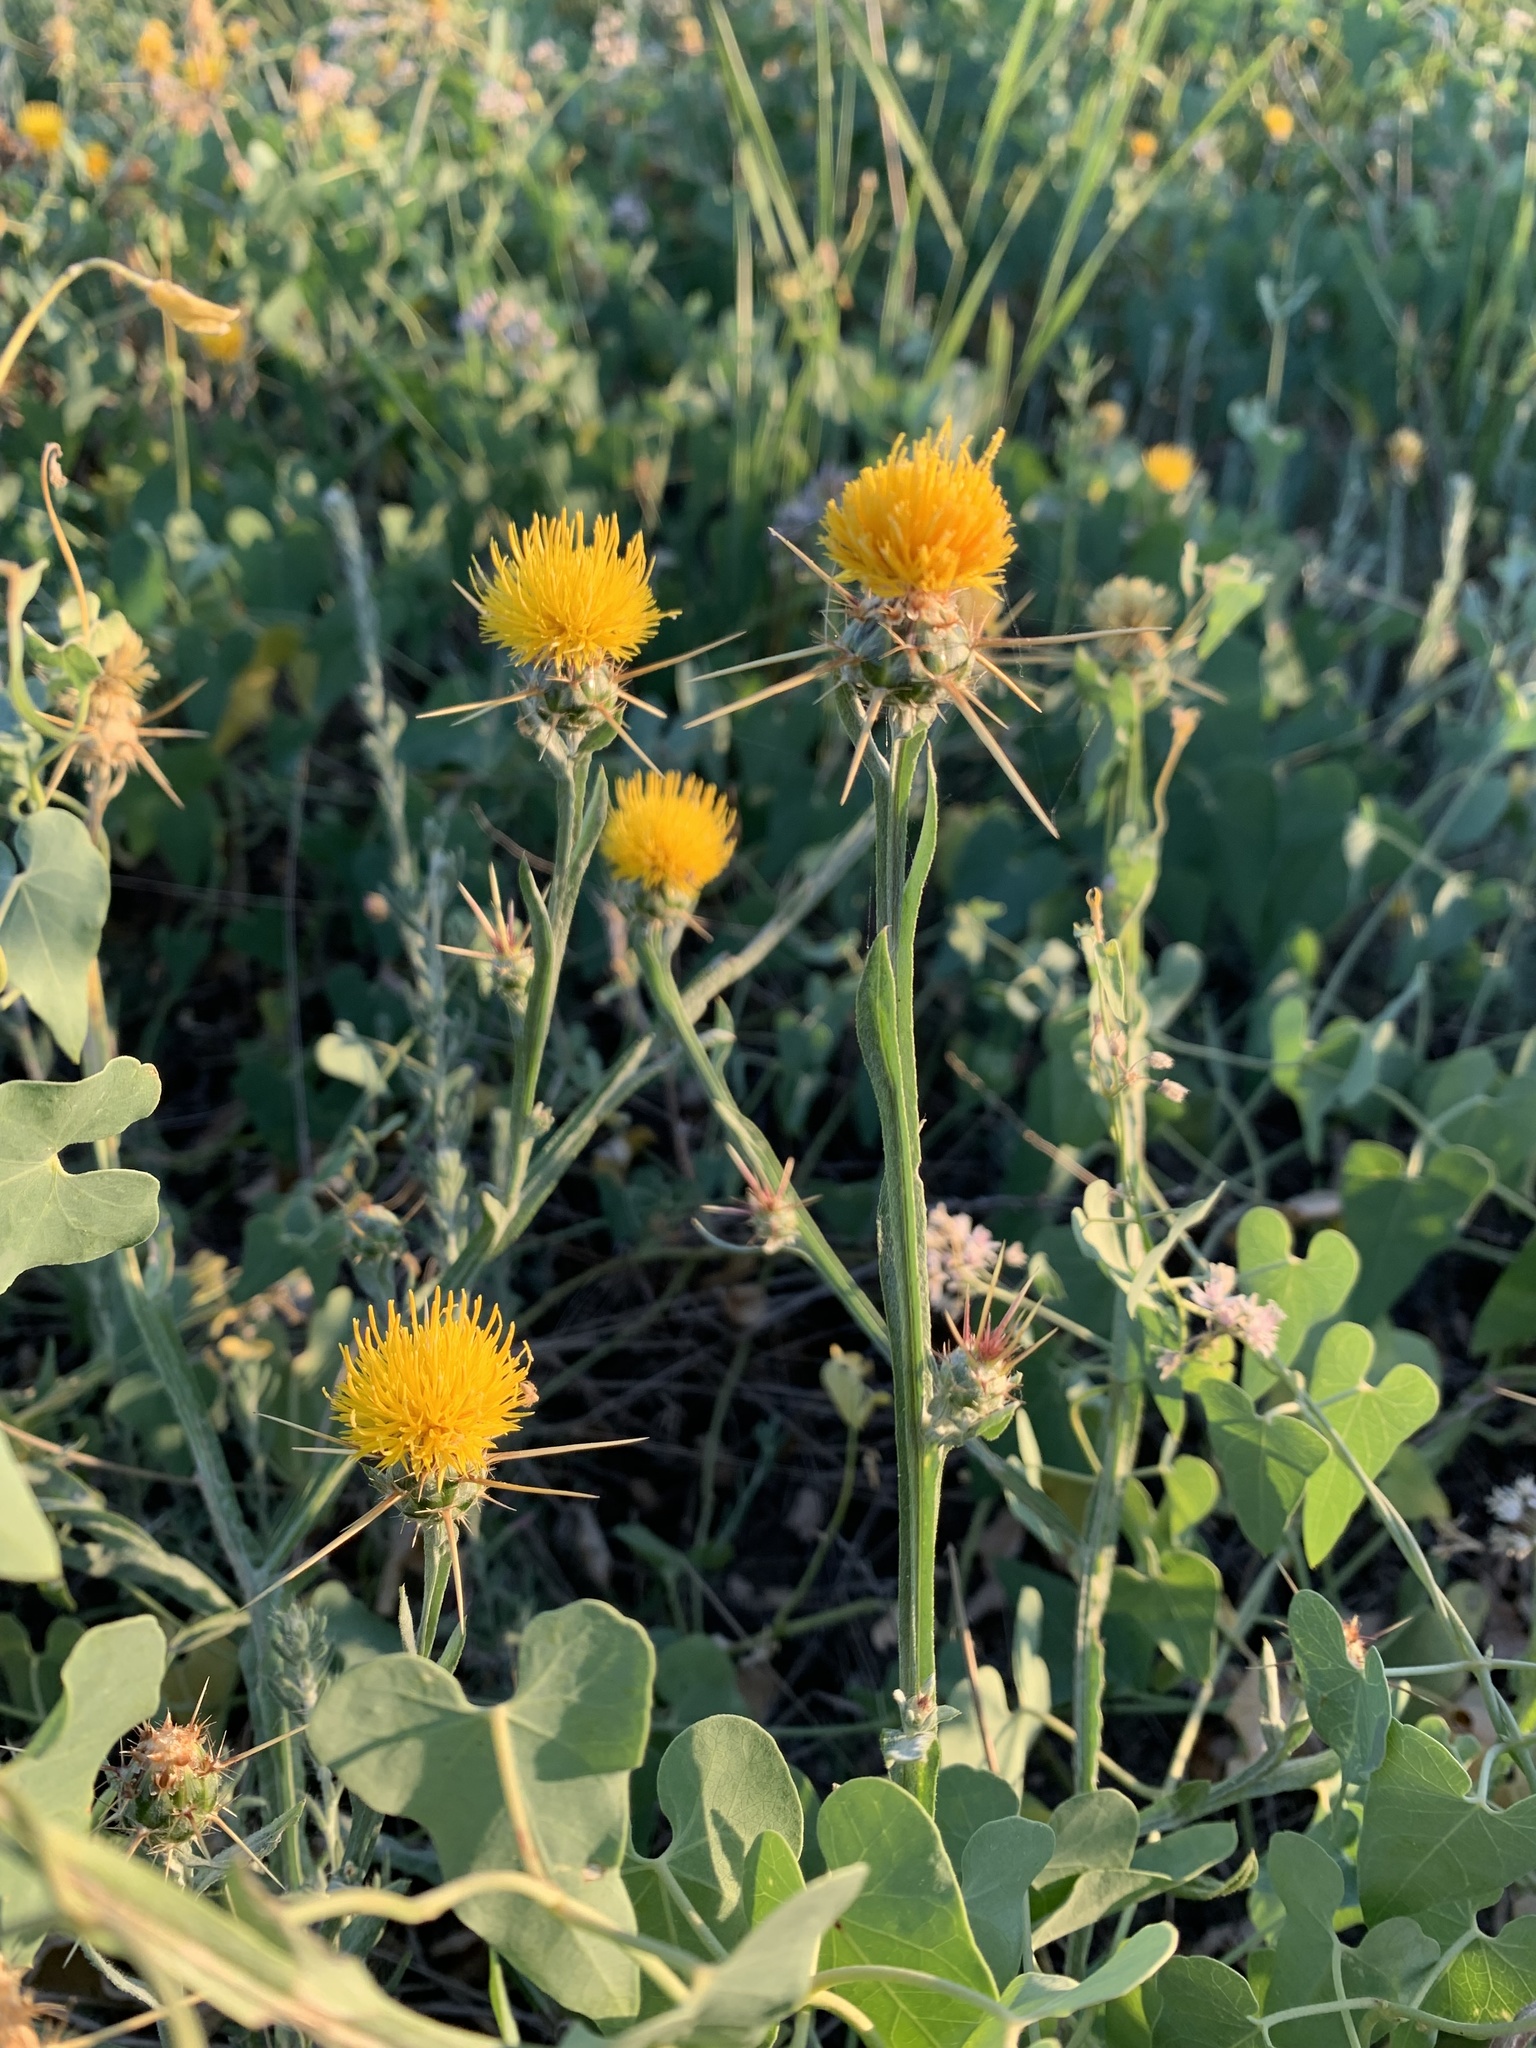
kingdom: Plantae
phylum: Tracheophyta
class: Magnoliopsida
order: Asterales
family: Asteraceae
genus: Centaurea
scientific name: Centaurea solstitialis
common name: Yellow star-thistle
